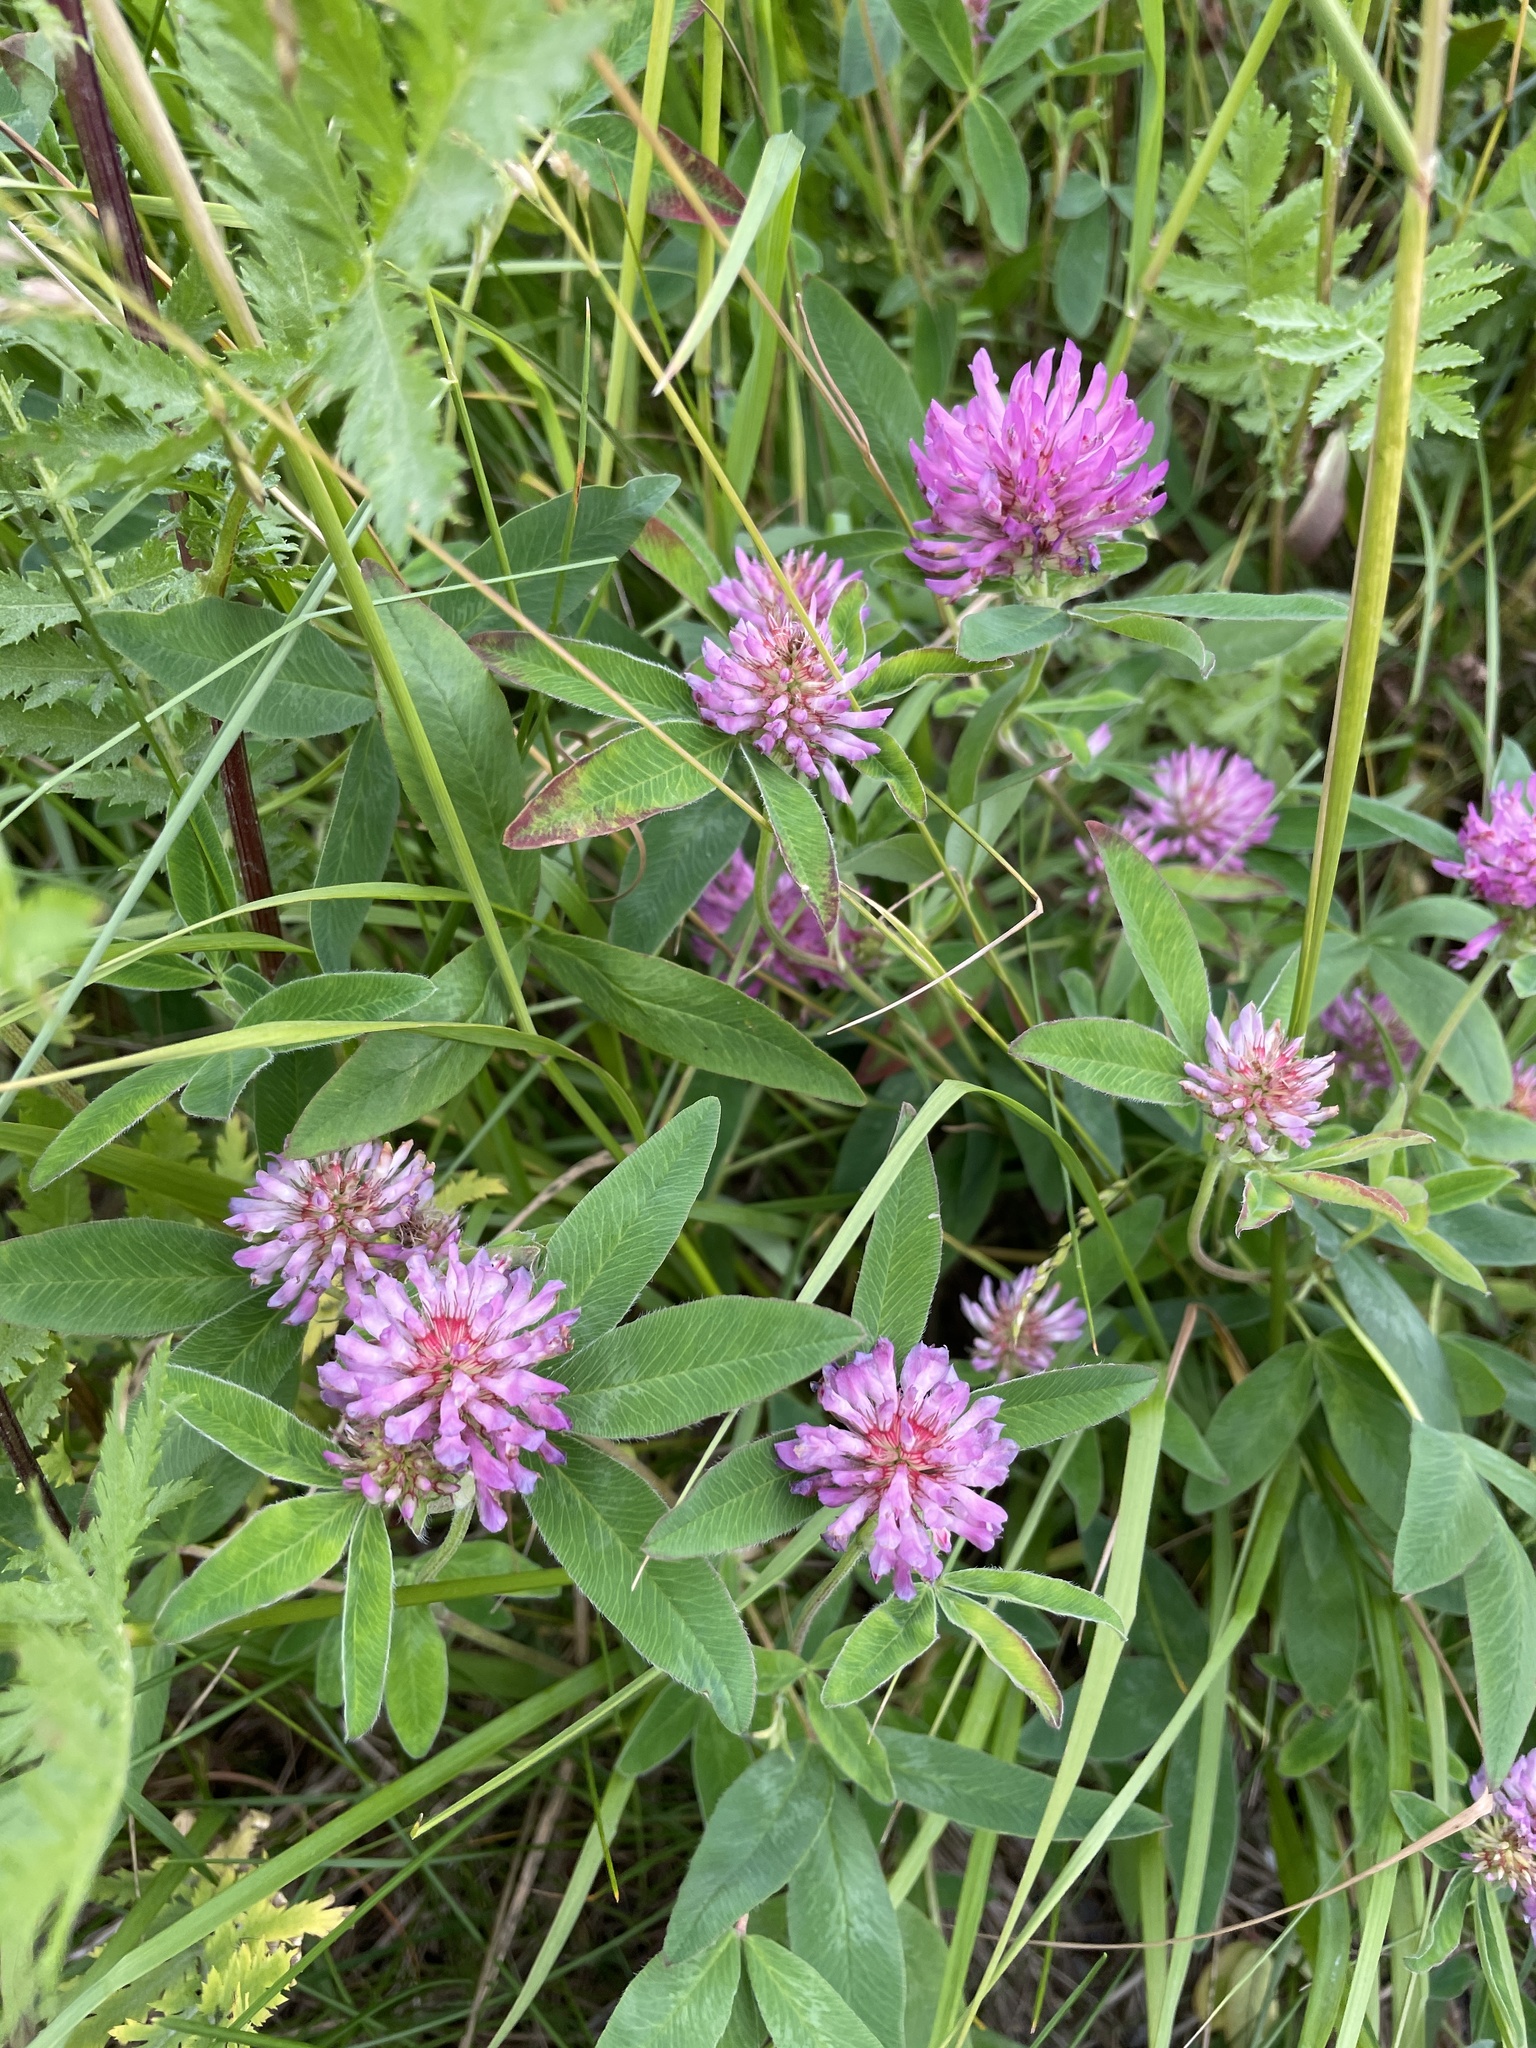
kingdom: Plantae
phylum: Tracheophyta
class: Magnoliopsida
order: Fabales
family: Fabaceae
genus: Trifolium
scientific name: Trifolium medium
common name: Zigzag clover
